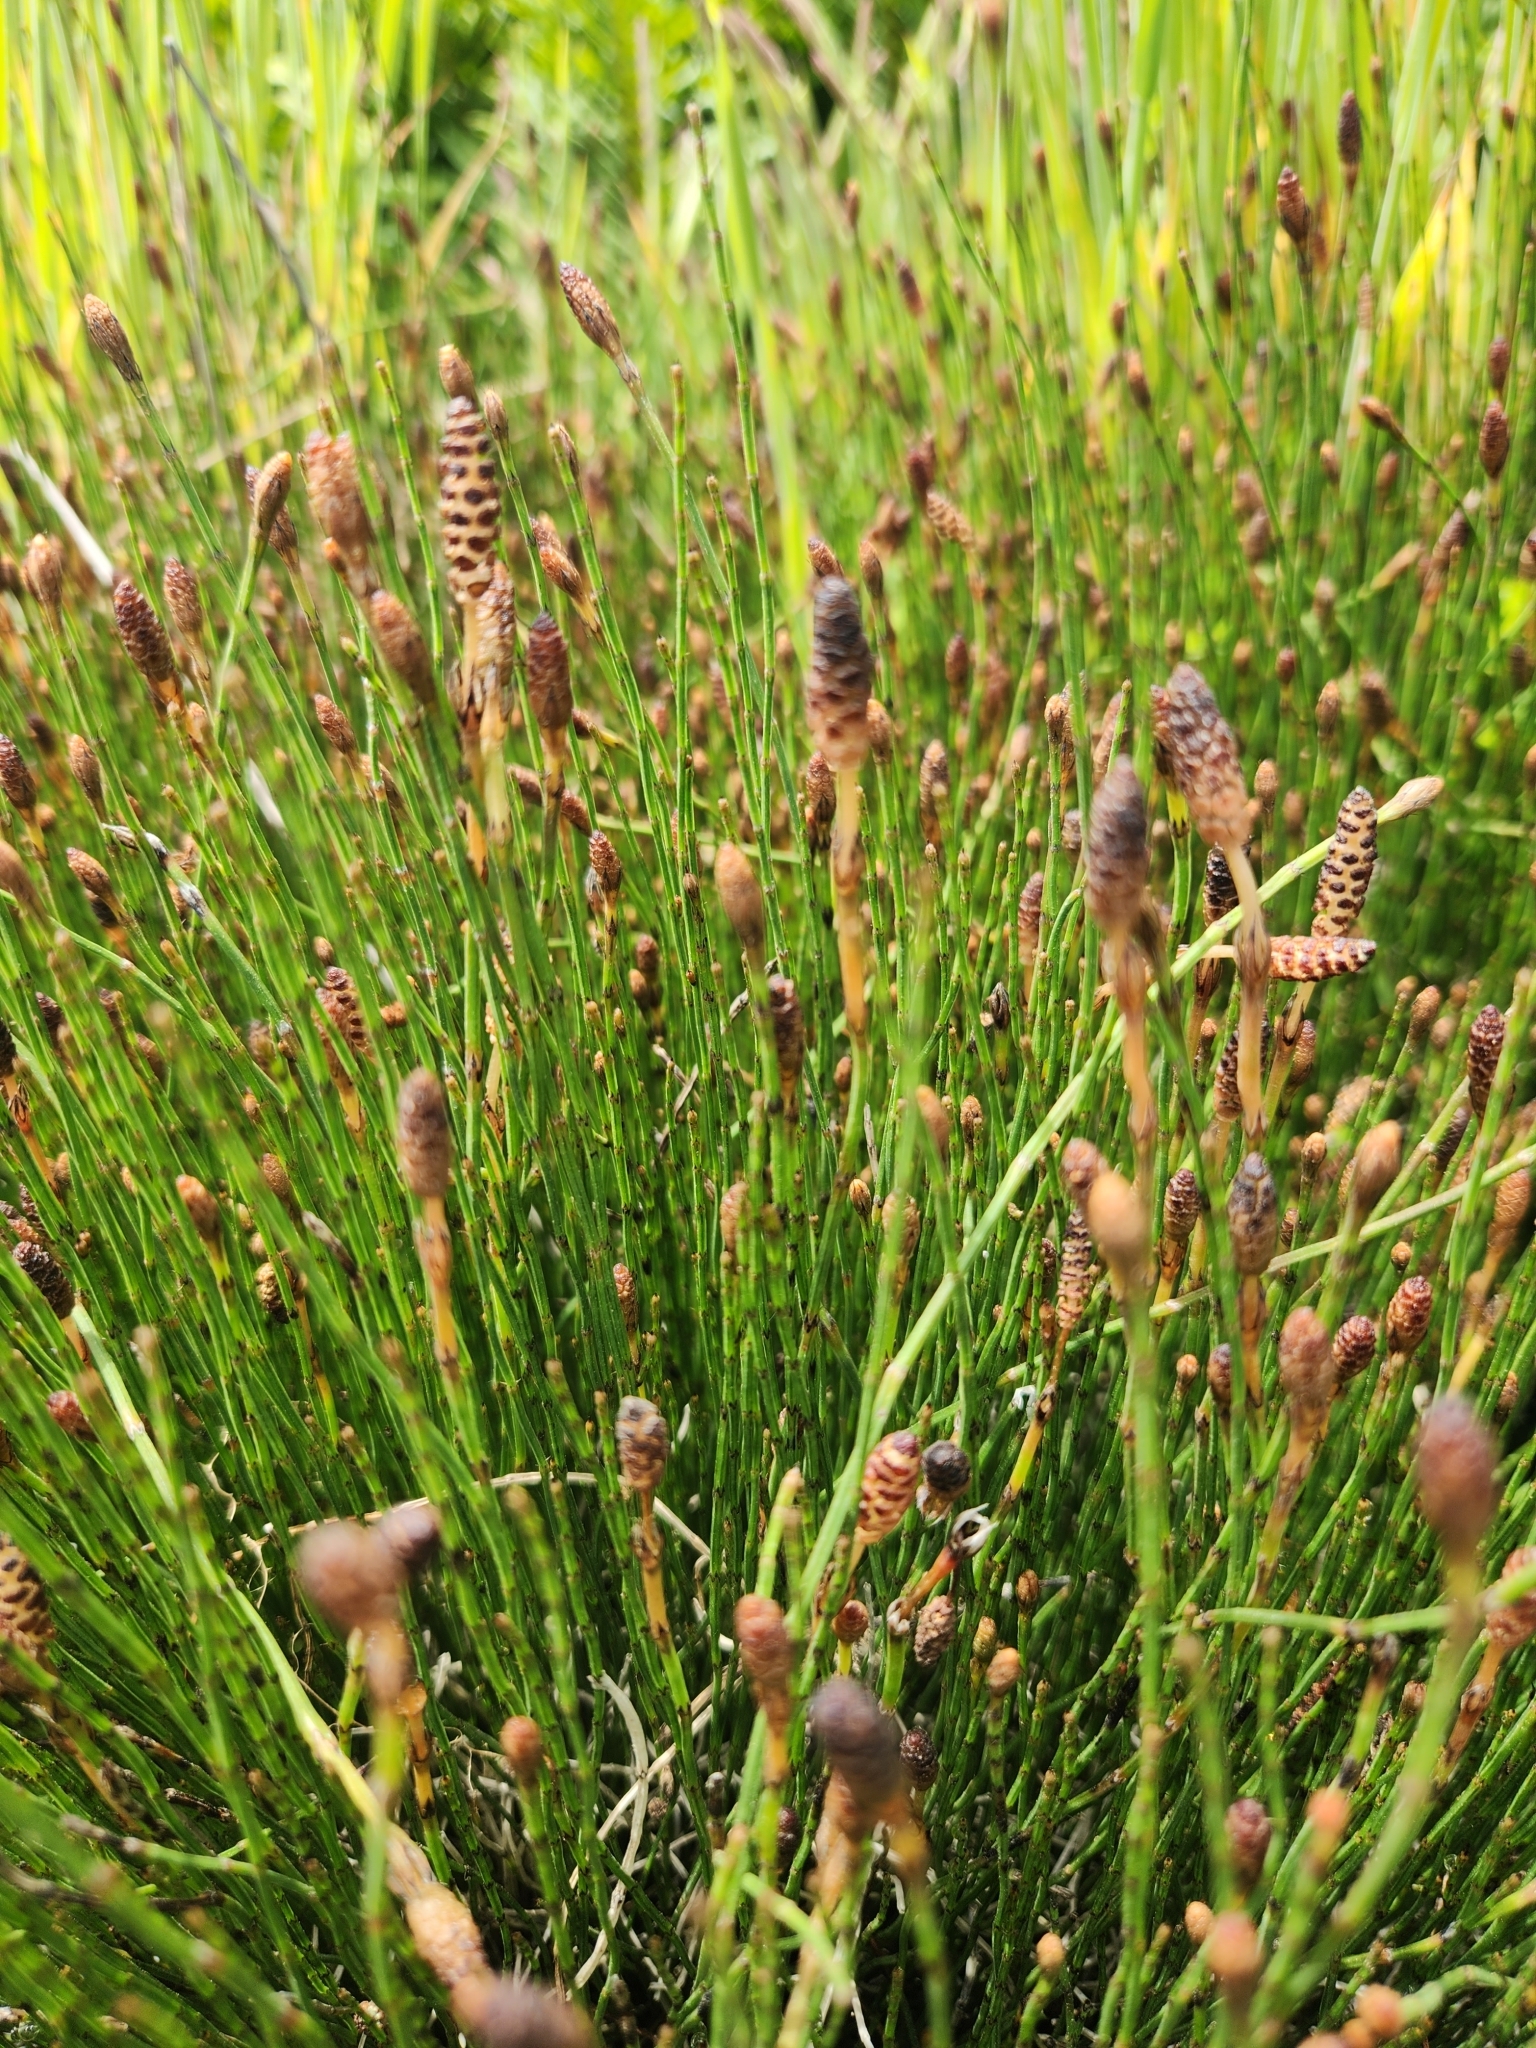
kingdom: Plantae
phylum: Tracheophyta
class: Polypodiopsida
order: Equisetales
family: Equisetaceae
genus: Equisetum
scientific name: Equisetum bogotense
